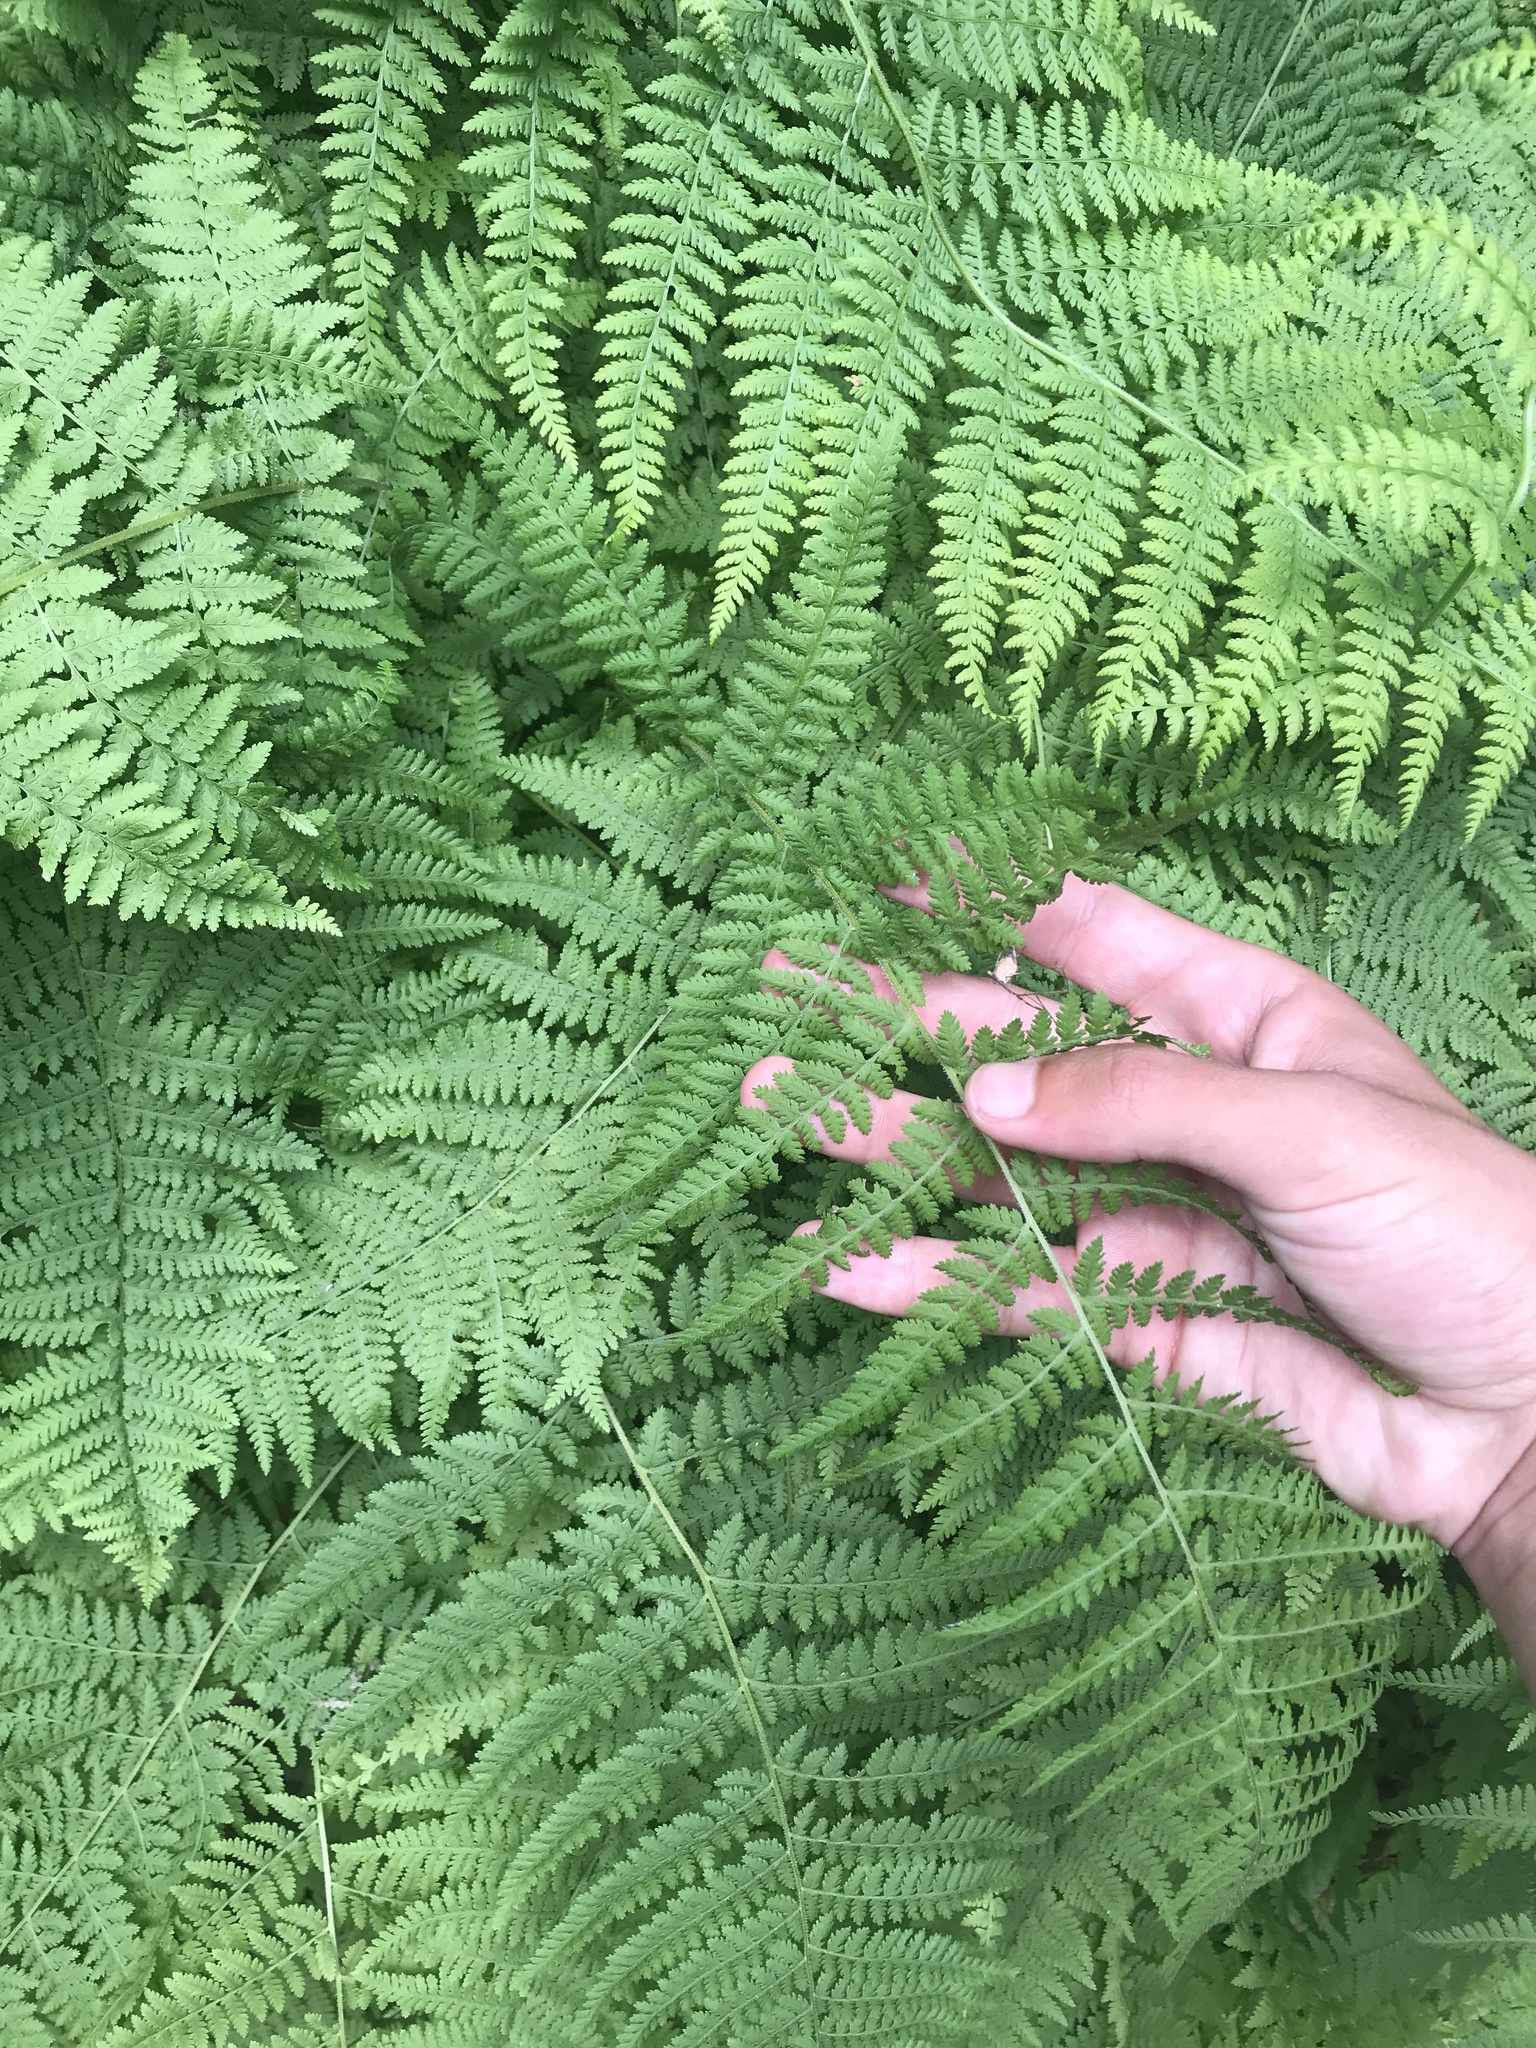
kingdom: Plantae
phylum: Tracheophyta
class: Polypodiopsida
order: Polypodiales
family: Dennstaedtiaceae
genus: Sitobolium
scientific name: Sitobolium punctilobum
